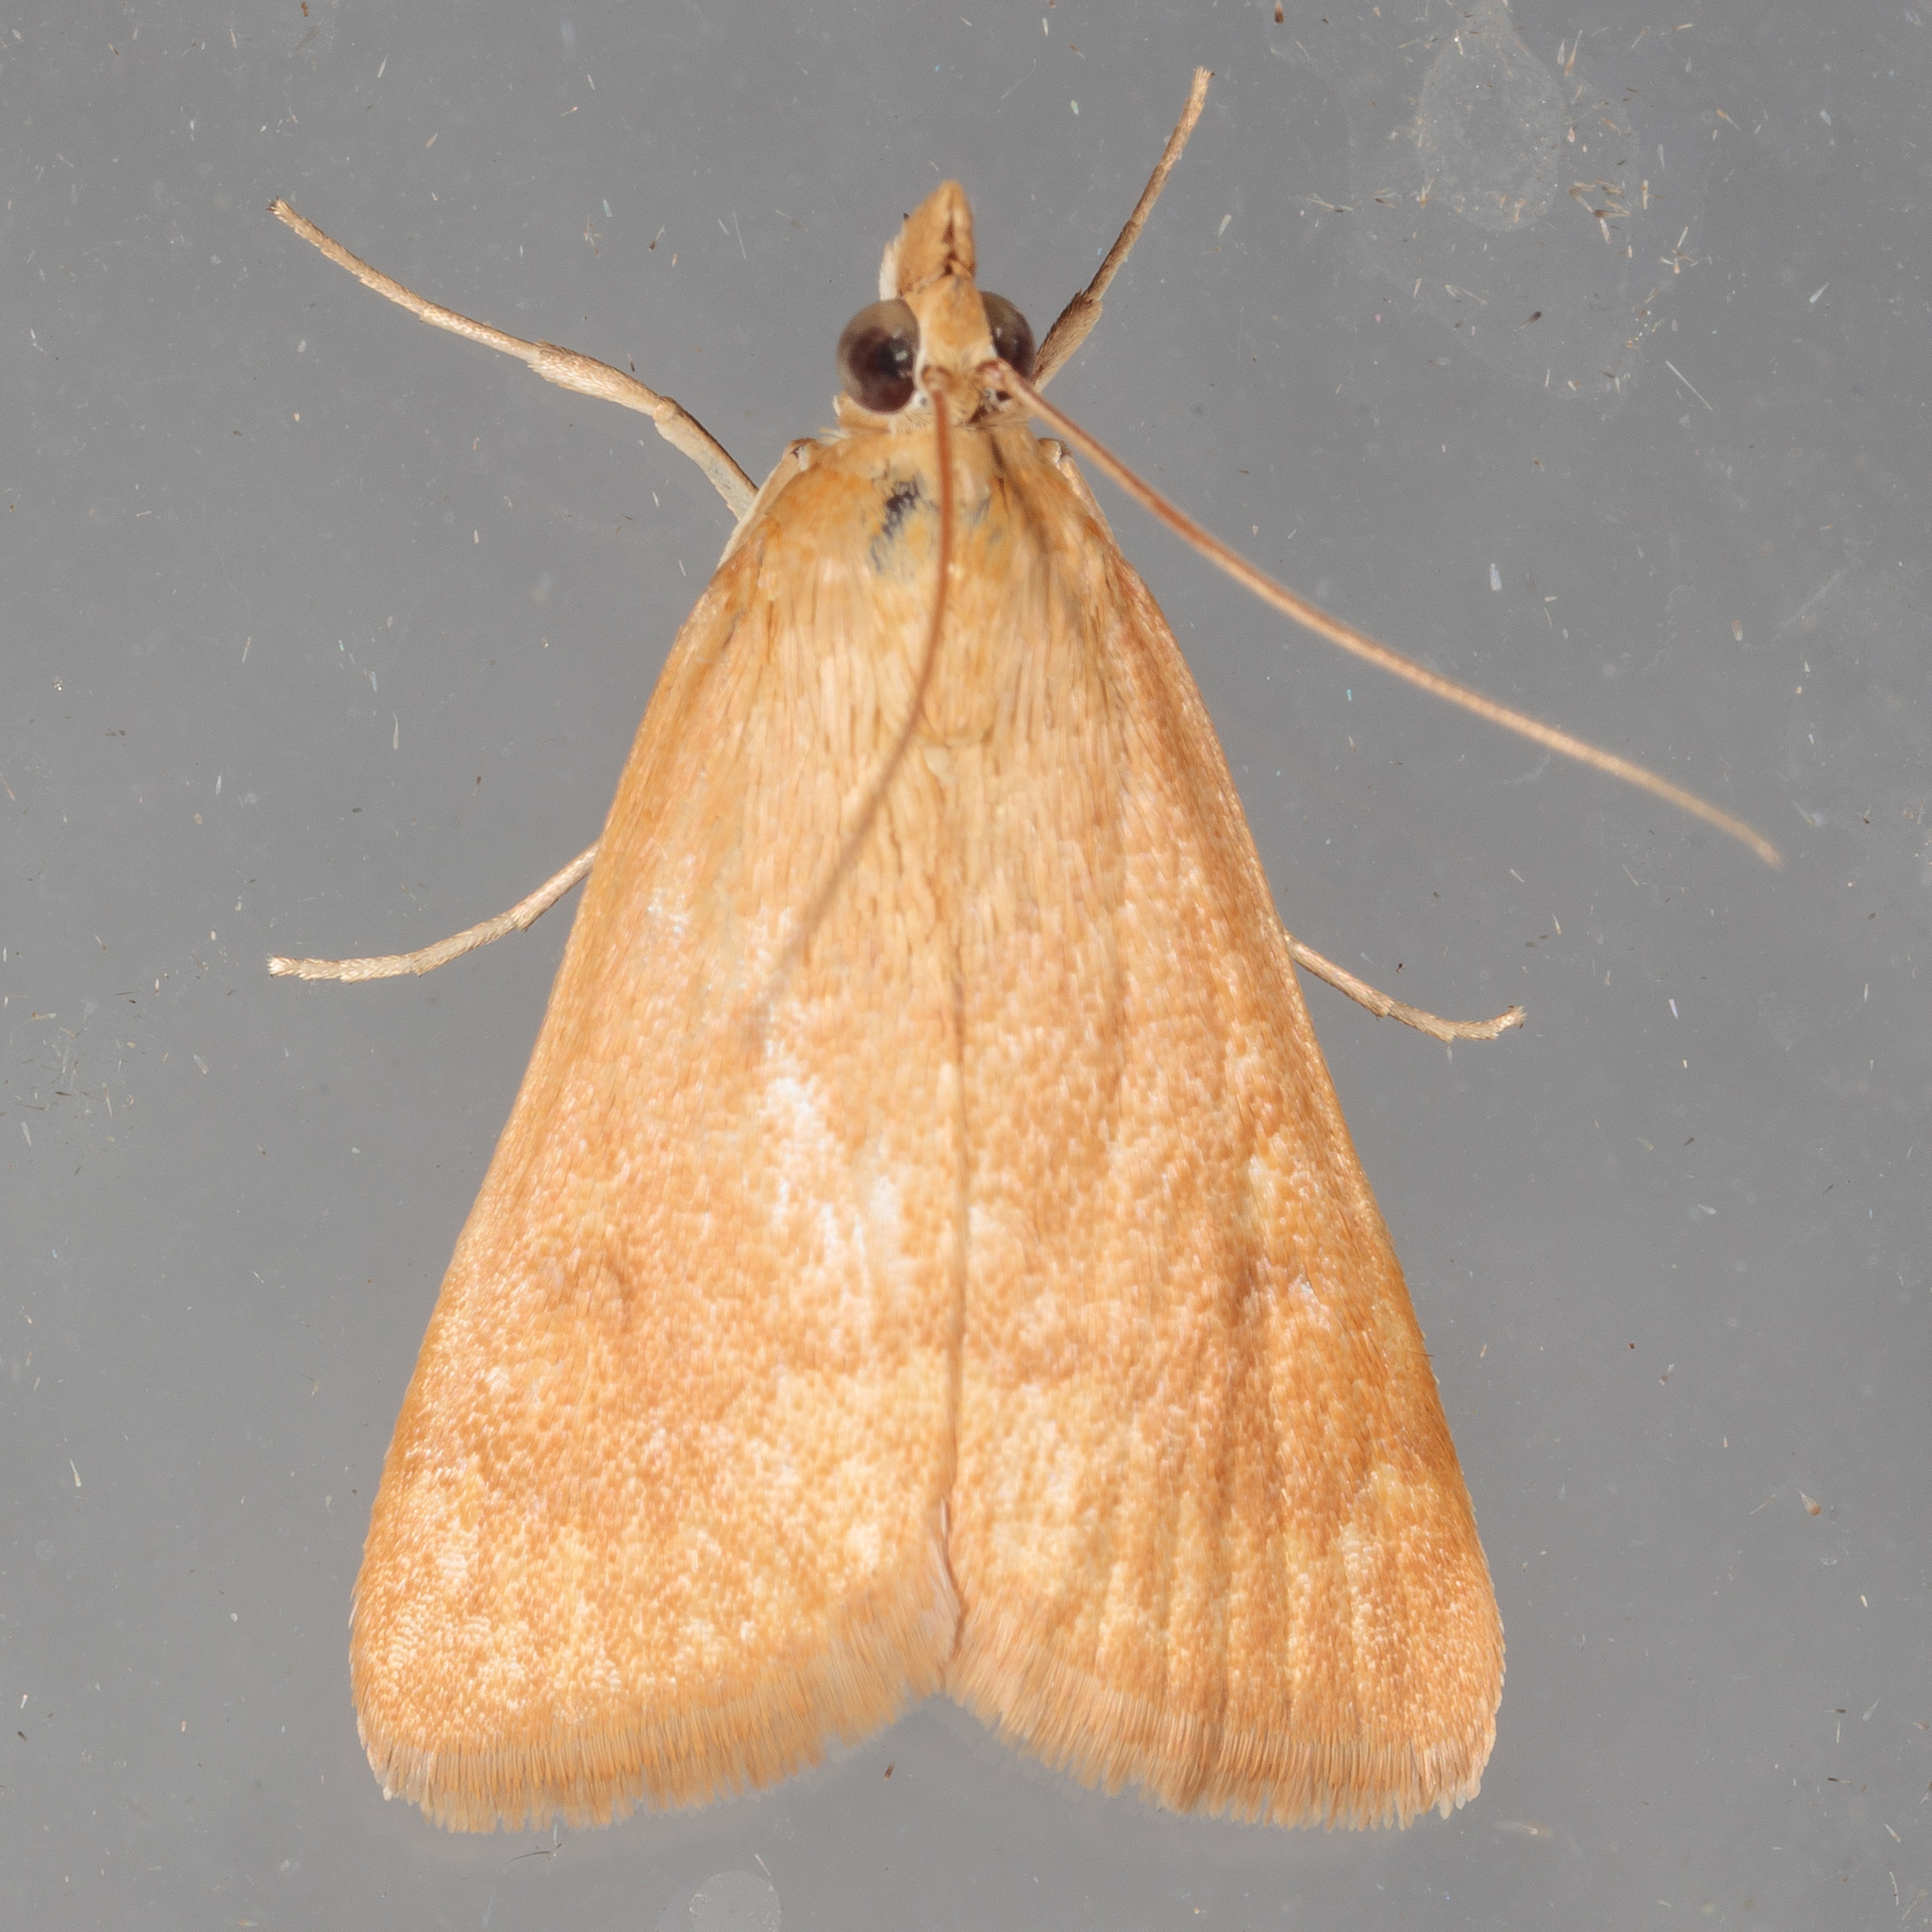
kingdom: Animalia
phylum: Arthropoda
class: Insecta
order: Lepidoptera
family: Crambidae
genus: Achyra
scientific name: Achyra rantalis
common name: Garden webworm
